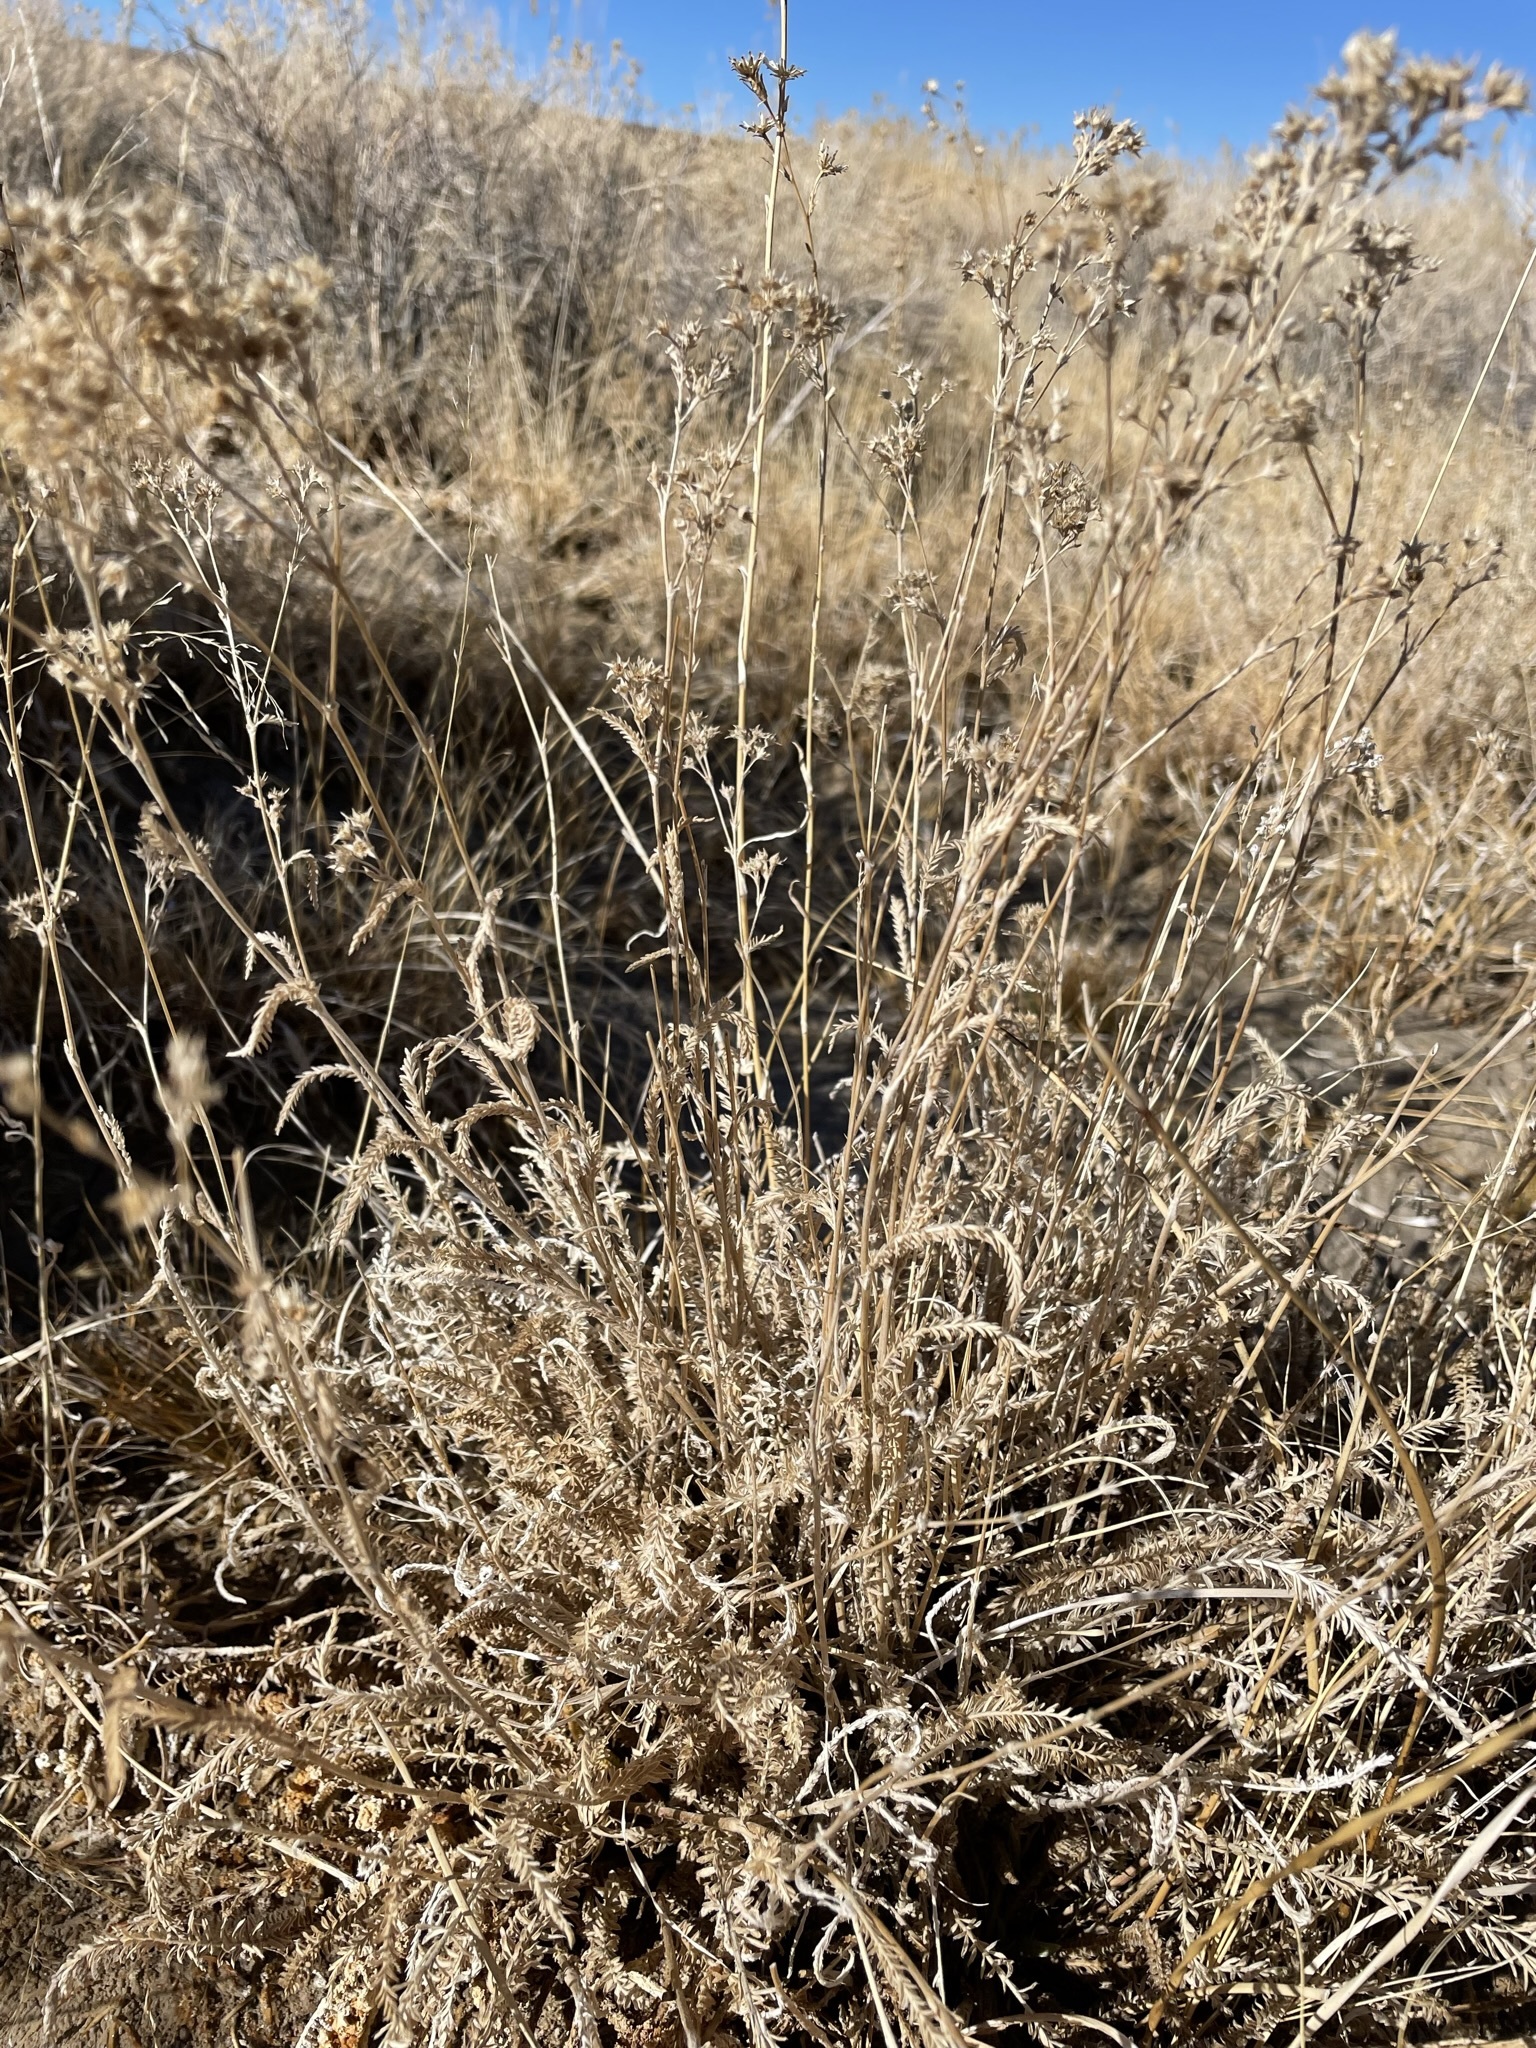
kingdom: Plantae
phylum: Tracheophyta
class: Magnoliopsida
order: Rosales
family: Rosaceae
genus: Potentilla
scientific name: Potentilla kingii
